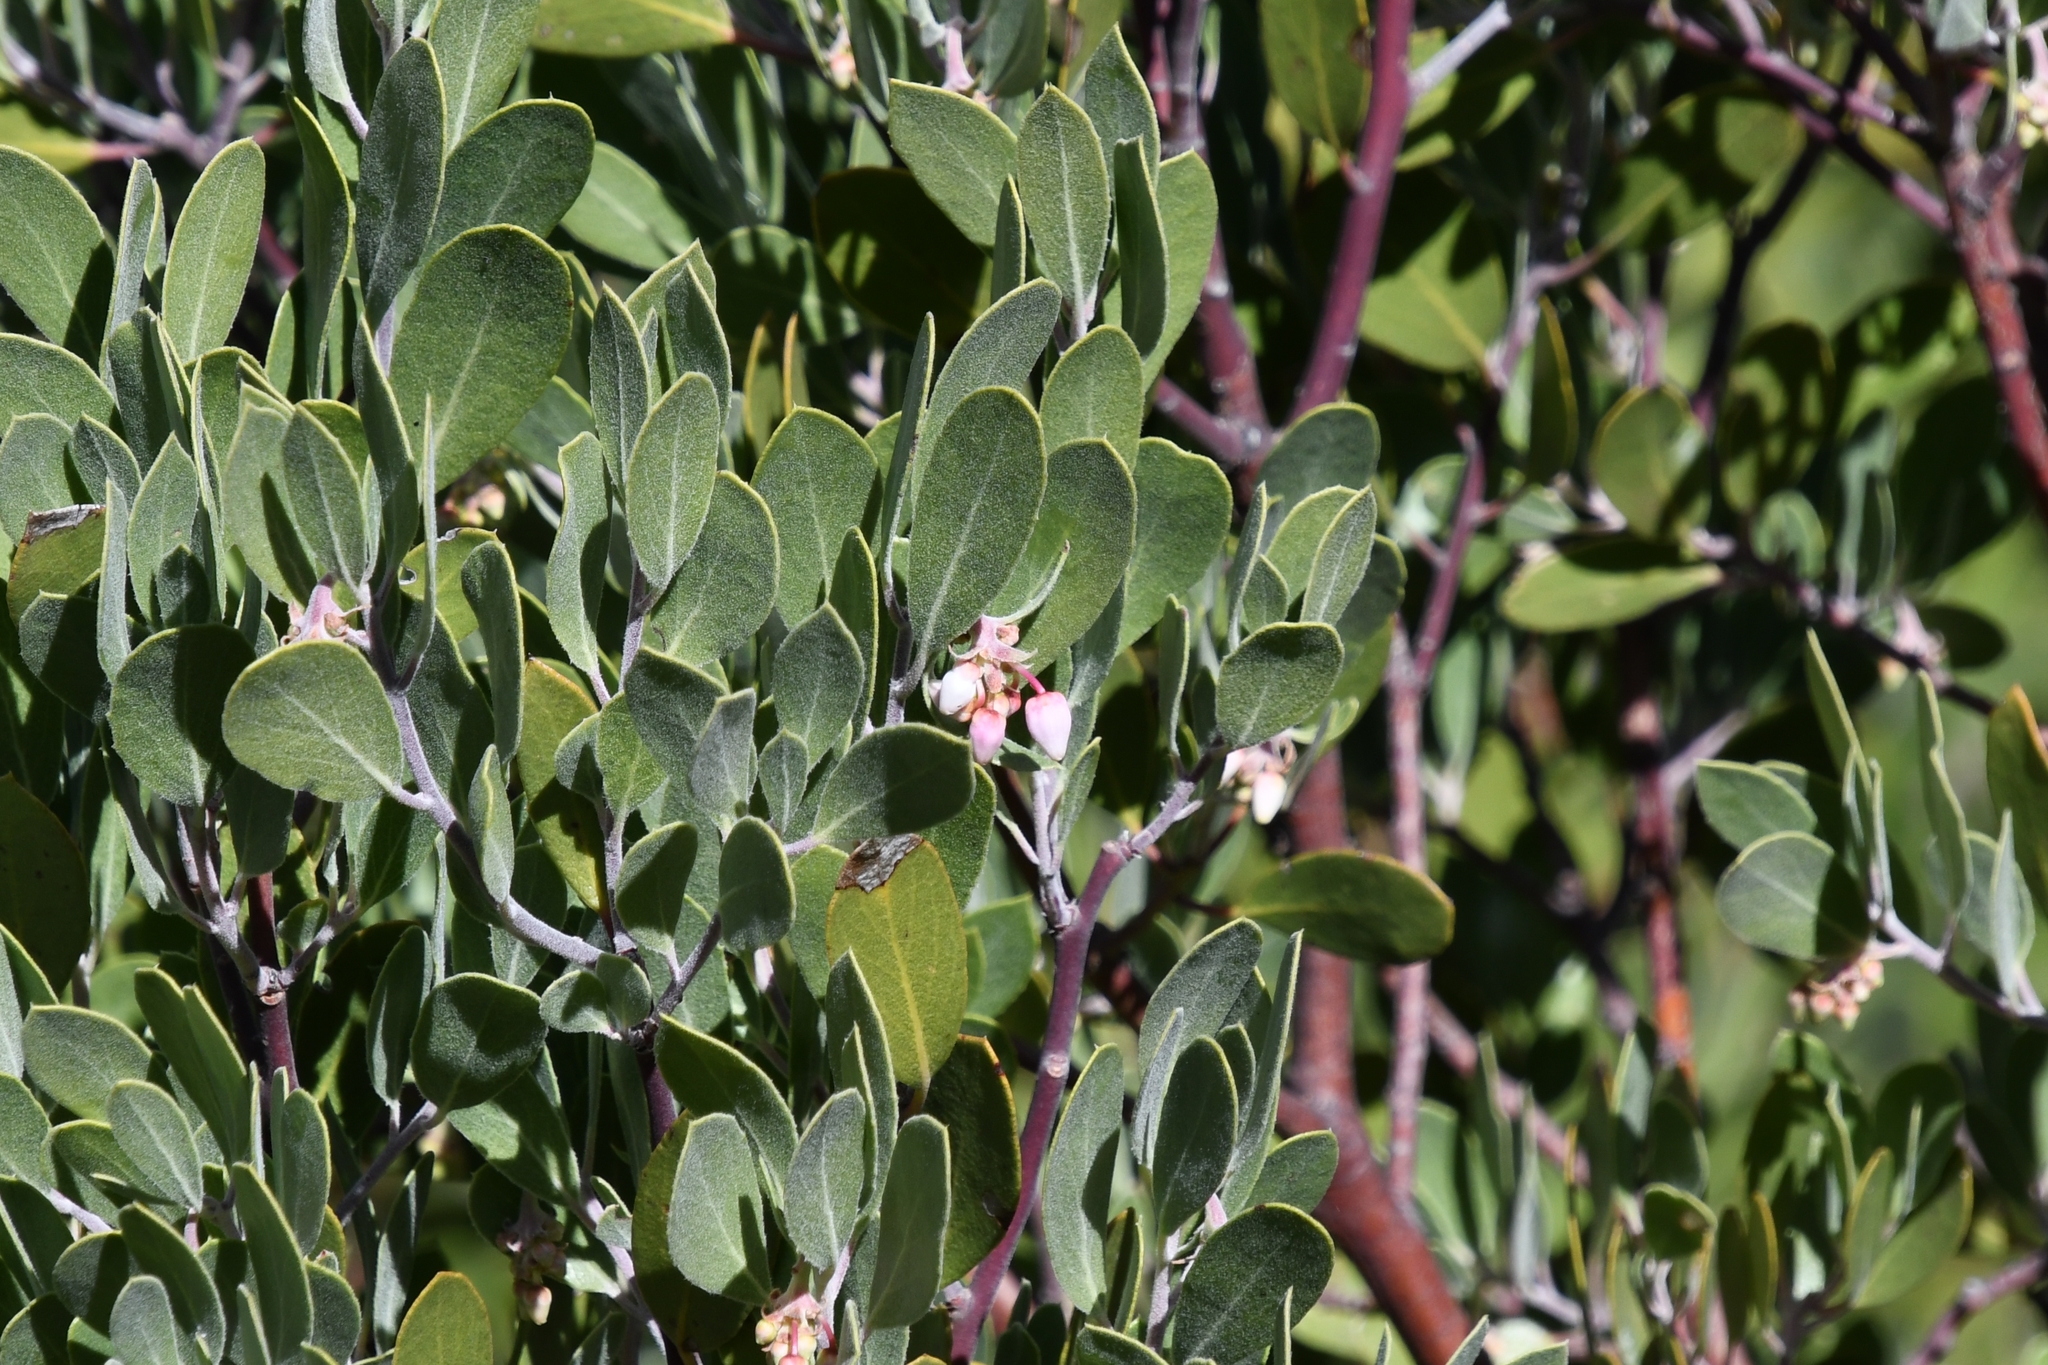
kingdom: Plantae
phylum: Tracheophyta
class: Magnoliopsida
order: Ericales
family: Ericaceae
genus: Arctostaphylos
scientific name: Arctostaphylos pungens
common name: Mexican manzanita
